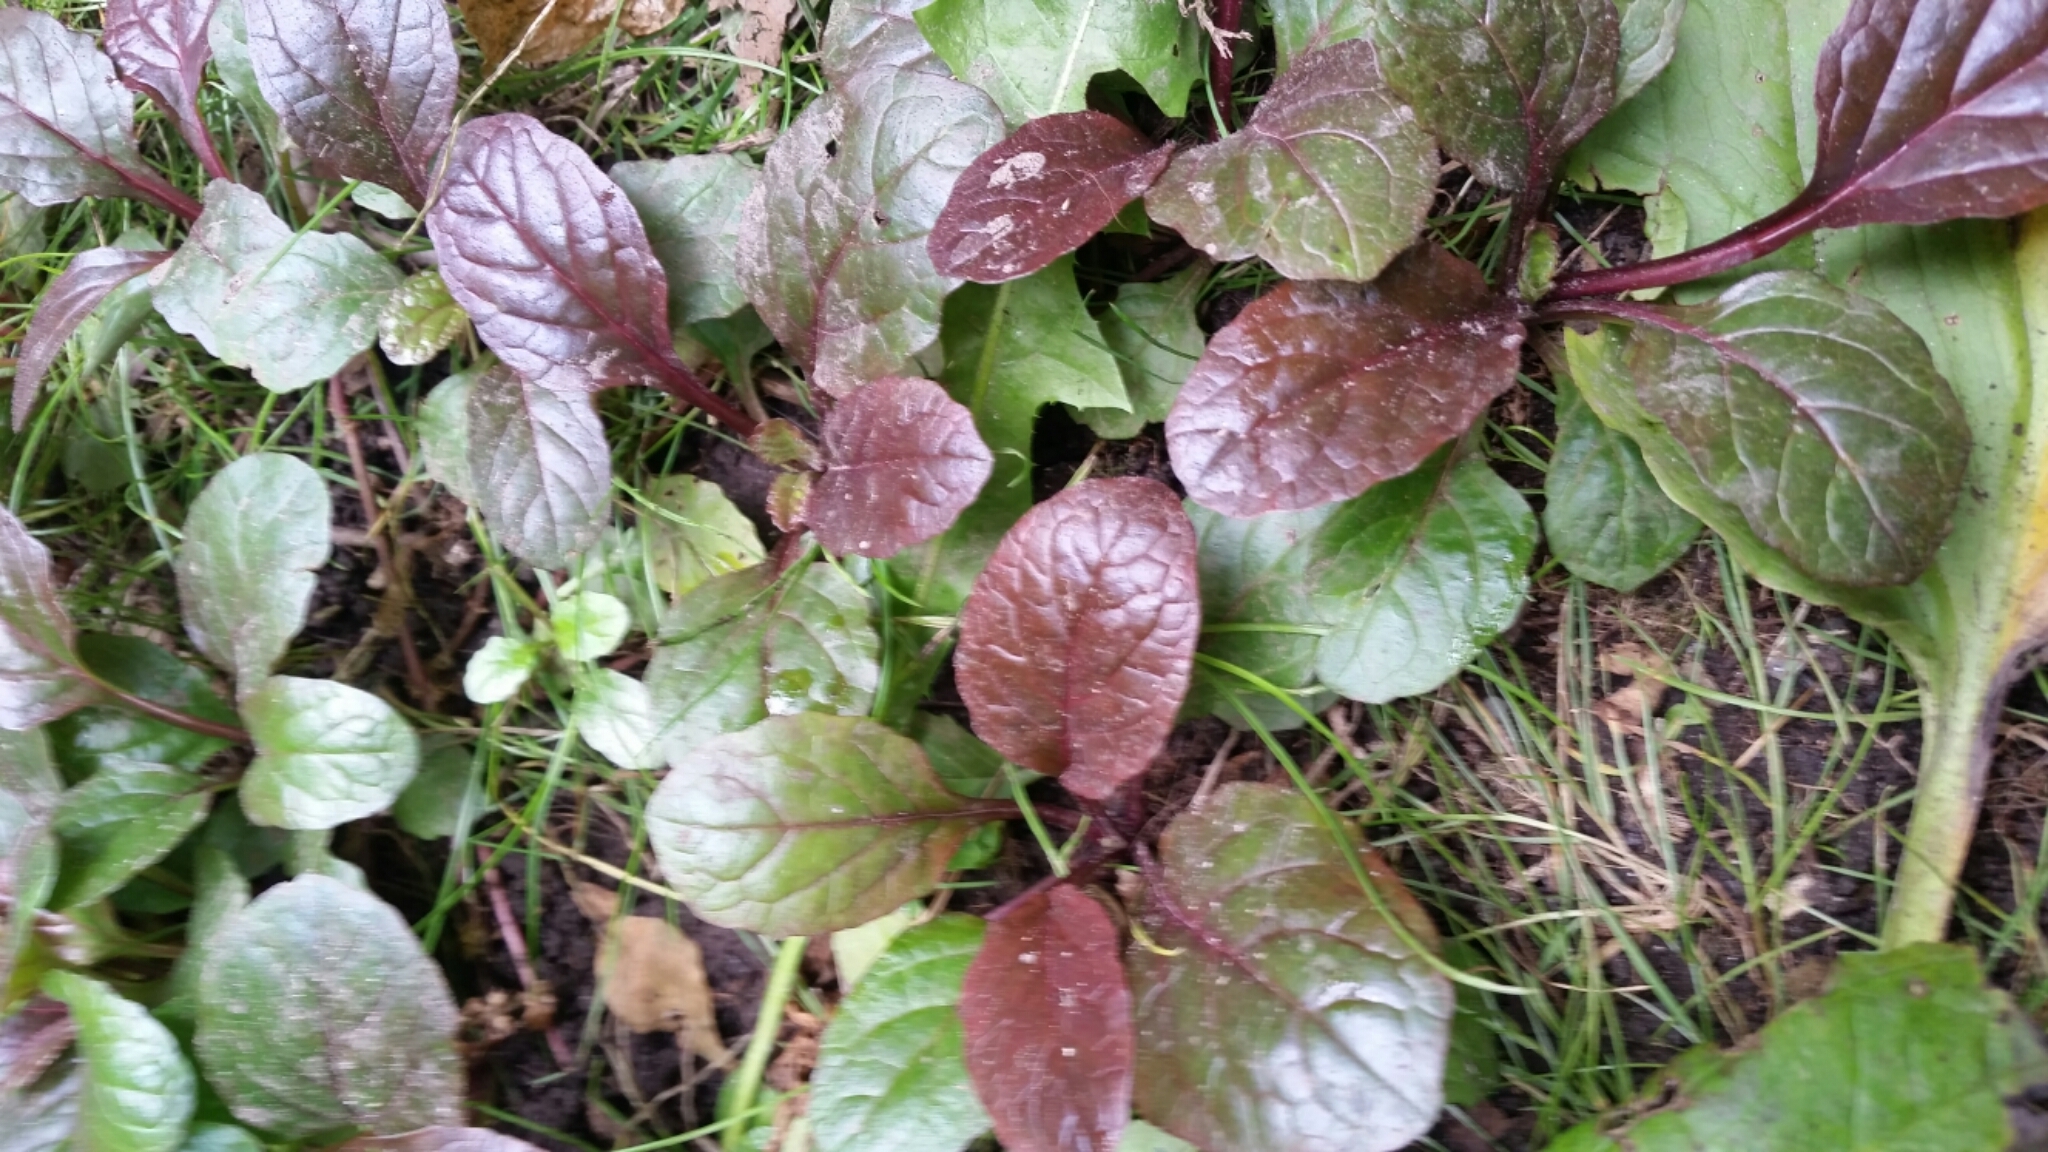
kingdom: Plantae
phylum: Tracheophyta
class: Magnoliopsida
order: Lamiales
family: Lamiaceae
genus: Ajuga
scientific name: Ajuga reptans
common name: Bugle
